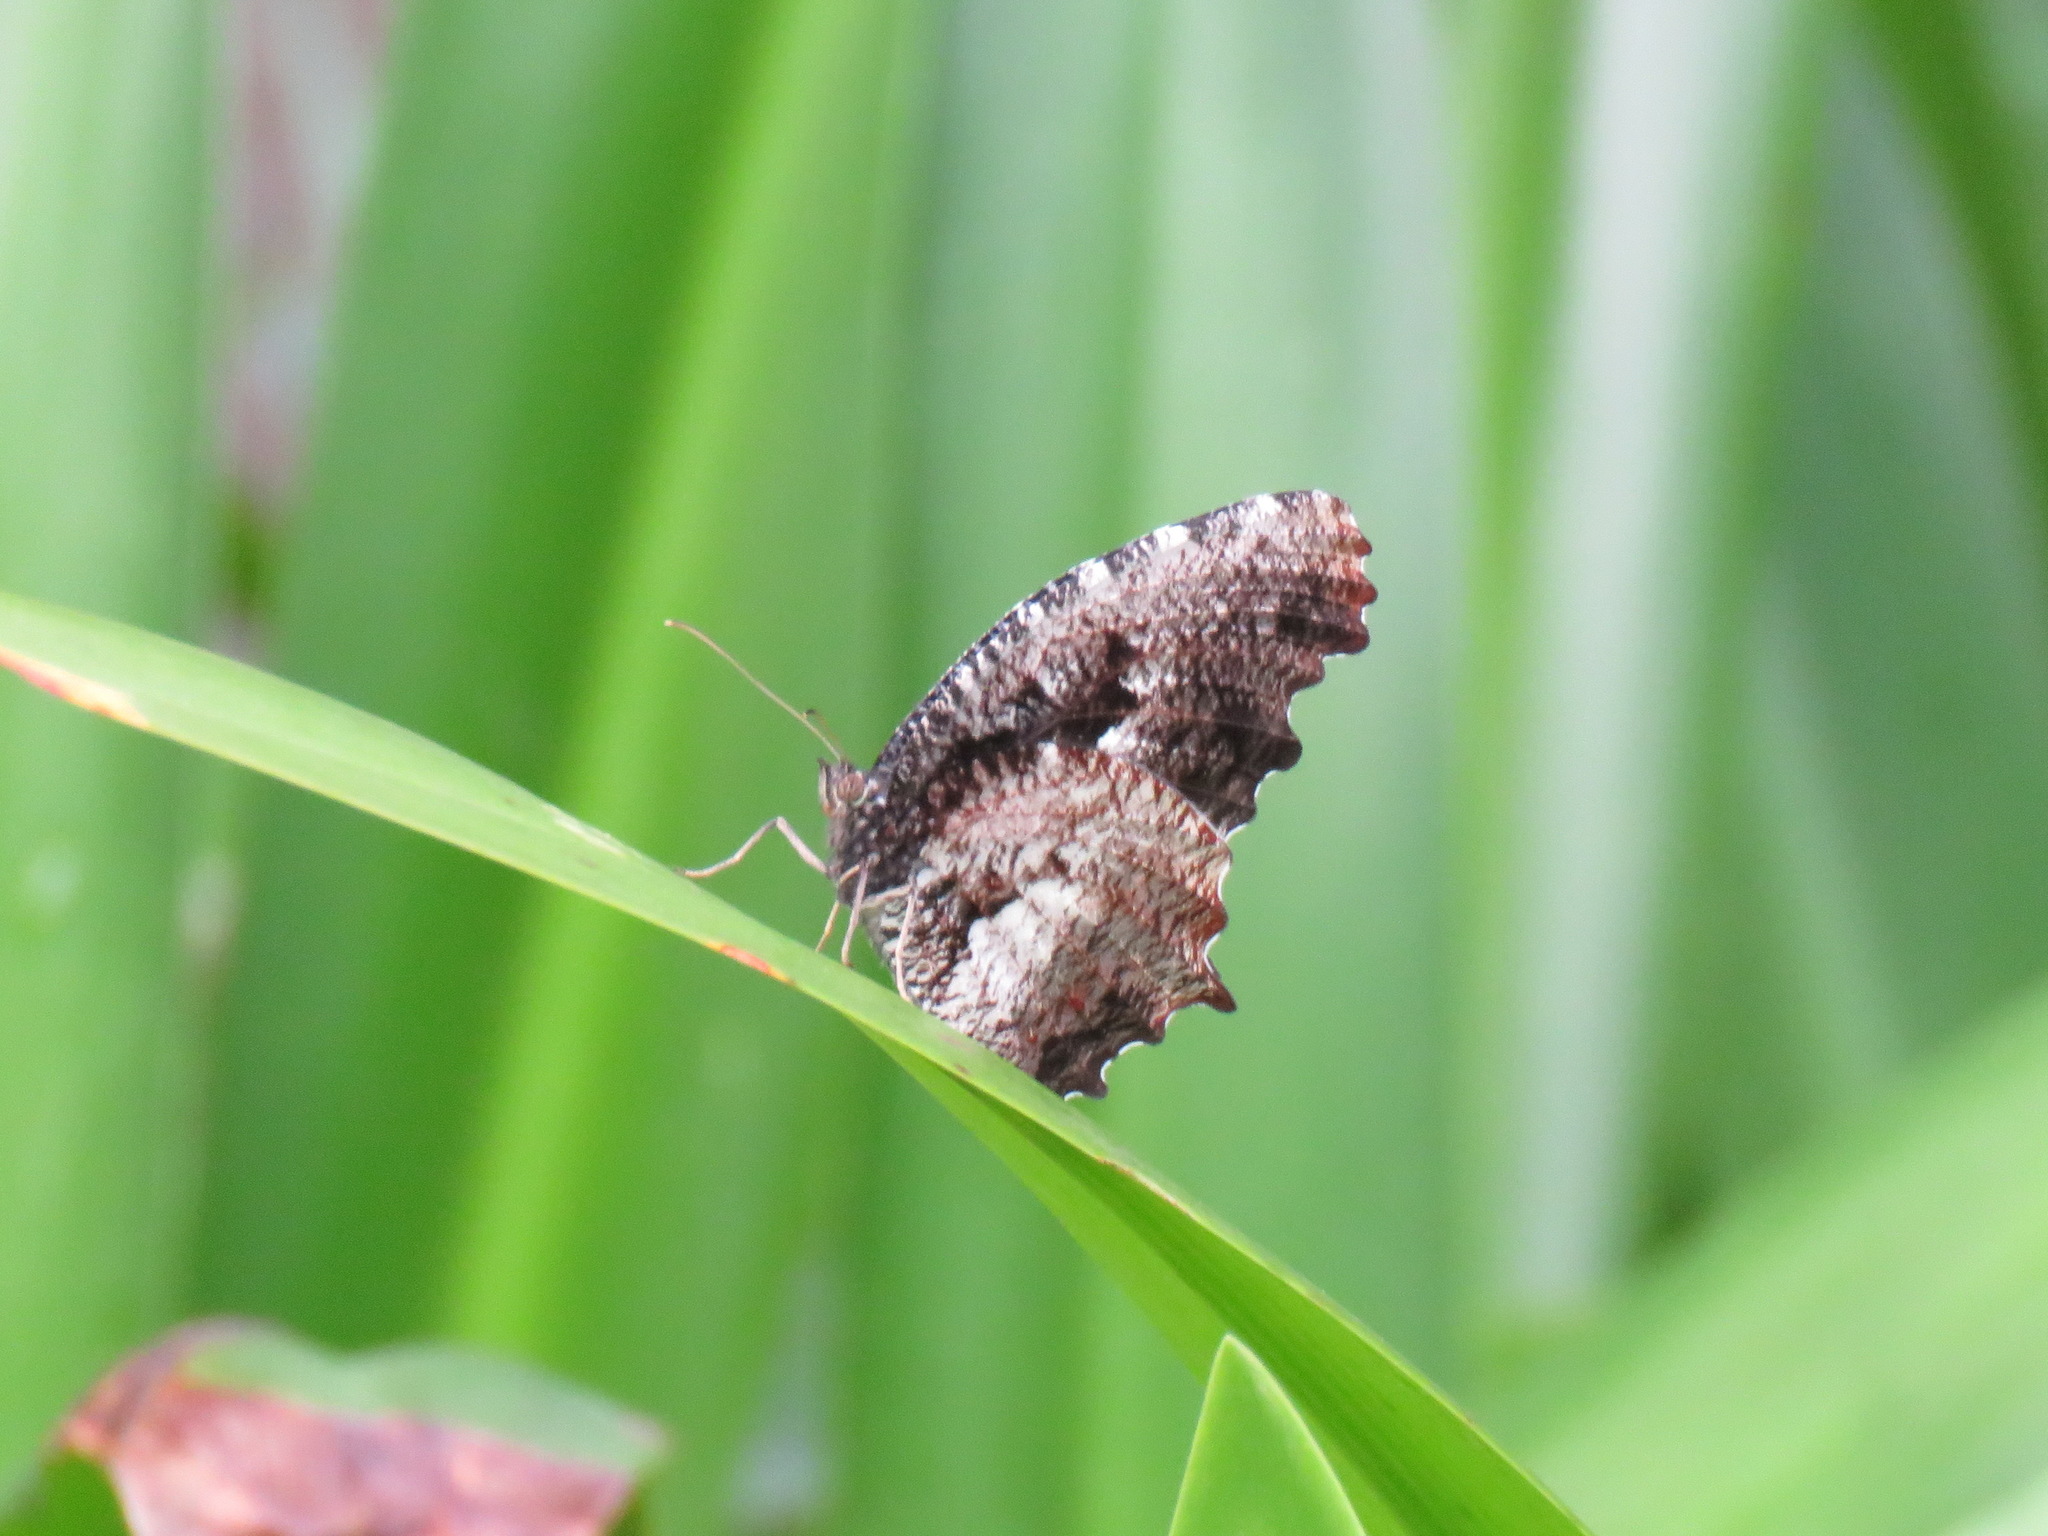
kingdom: Animalia
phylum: Arthropoda
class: Insecta
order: Lepidoptera
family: Nymphalidae
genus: Elymnias
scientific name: Elymnias nesaea
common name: Tiger palmfly
